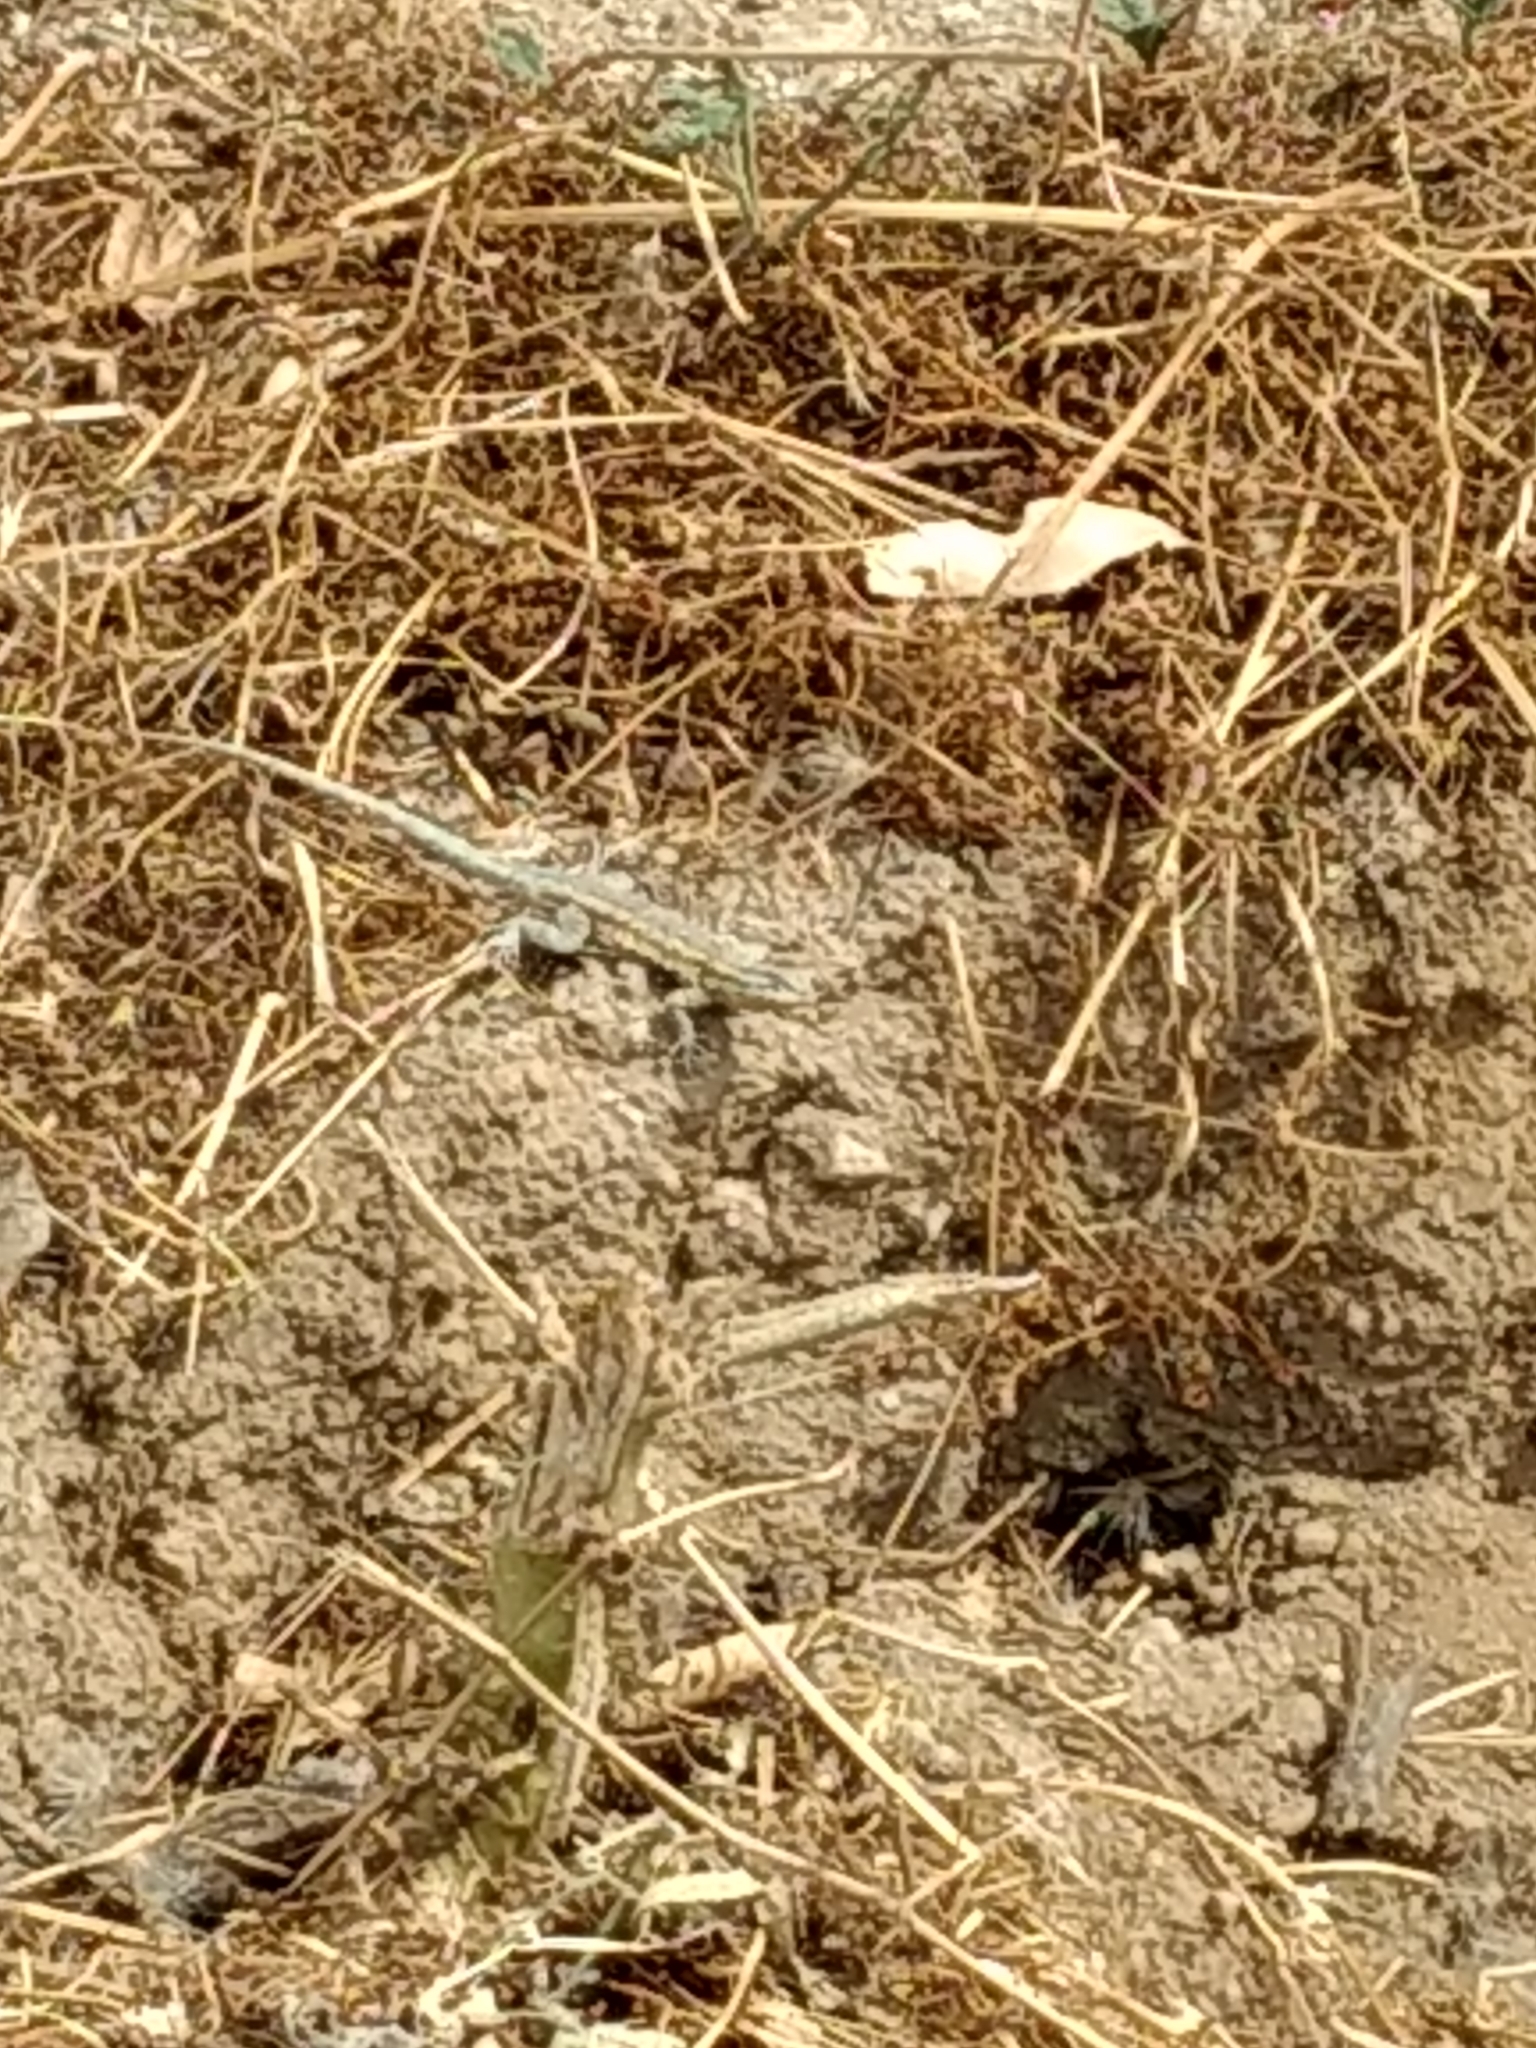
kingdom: Animalia
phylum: Chordata
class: Squamata
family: Phrynosomatidae
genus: Uta
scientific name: Uta stansburiana
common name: Side-blotched lizard
